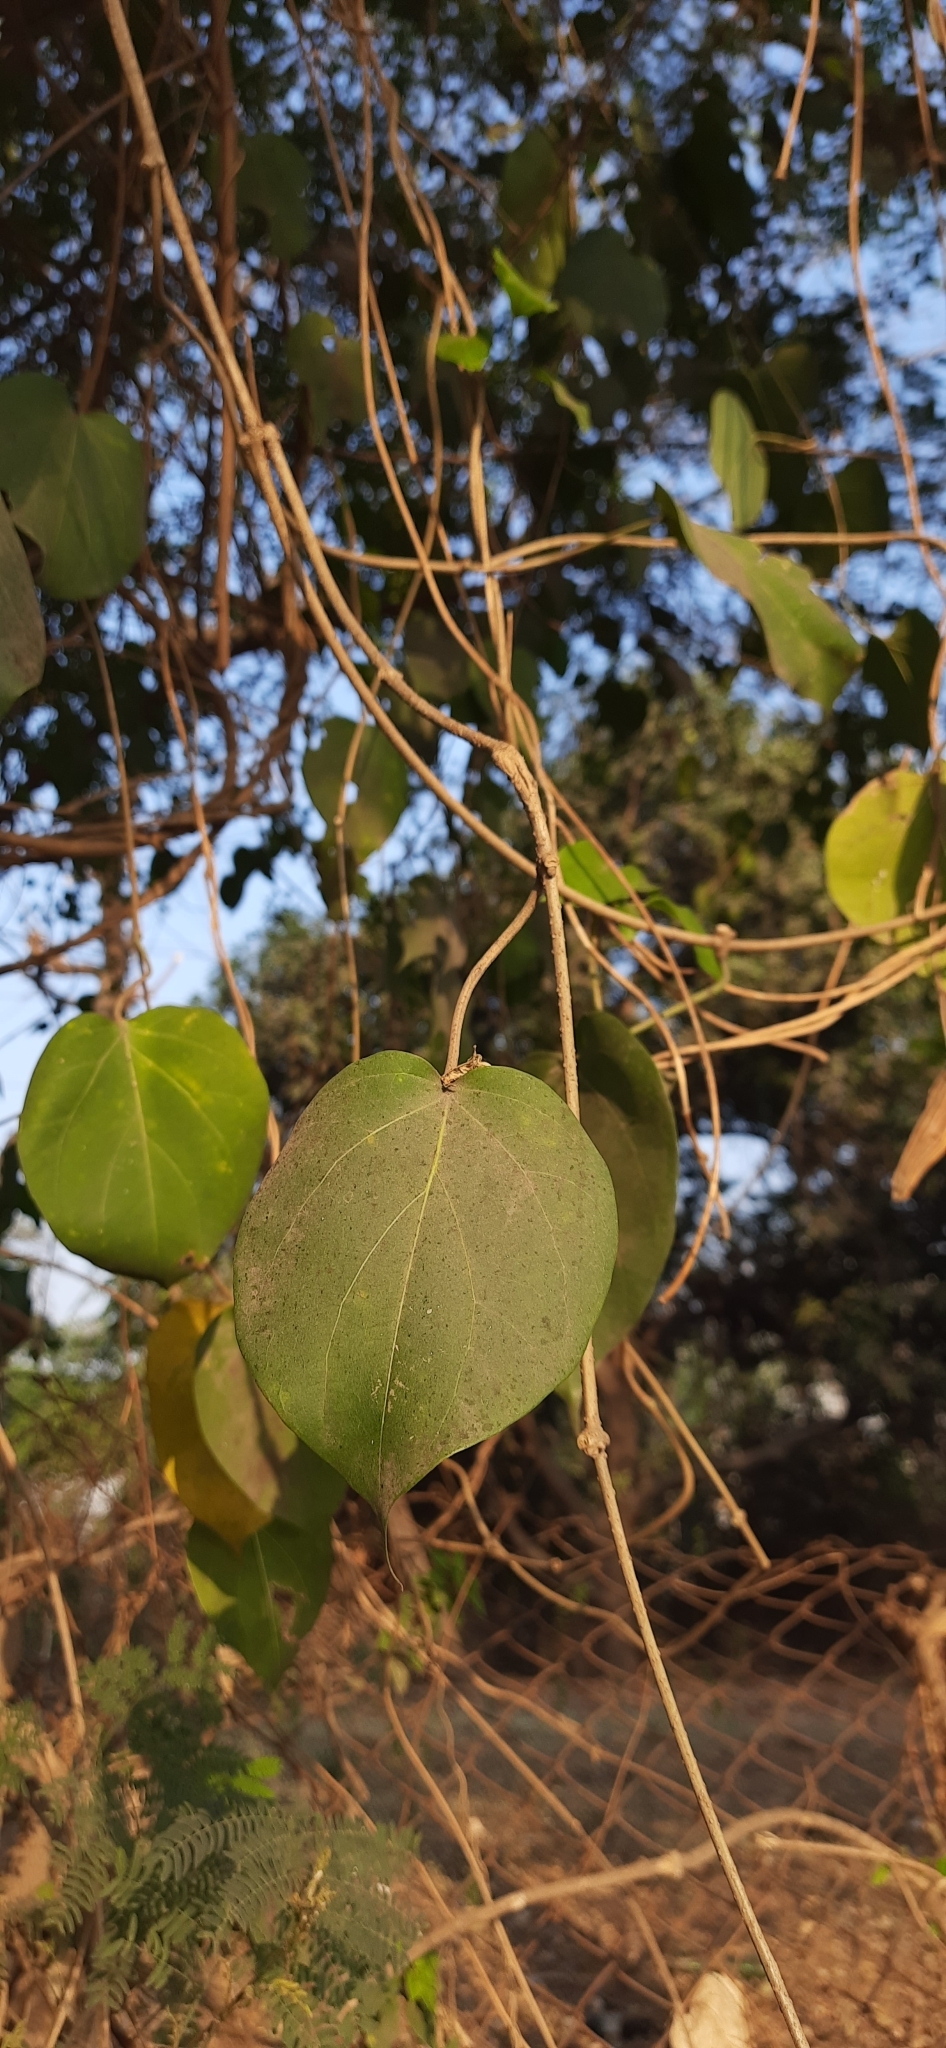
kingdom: Plantae
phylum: Tracheophyta
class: Magnoliopsida
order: Gentianales
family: Apocynaceae
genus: Stephanotis
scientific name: Stephanotis volubilis
